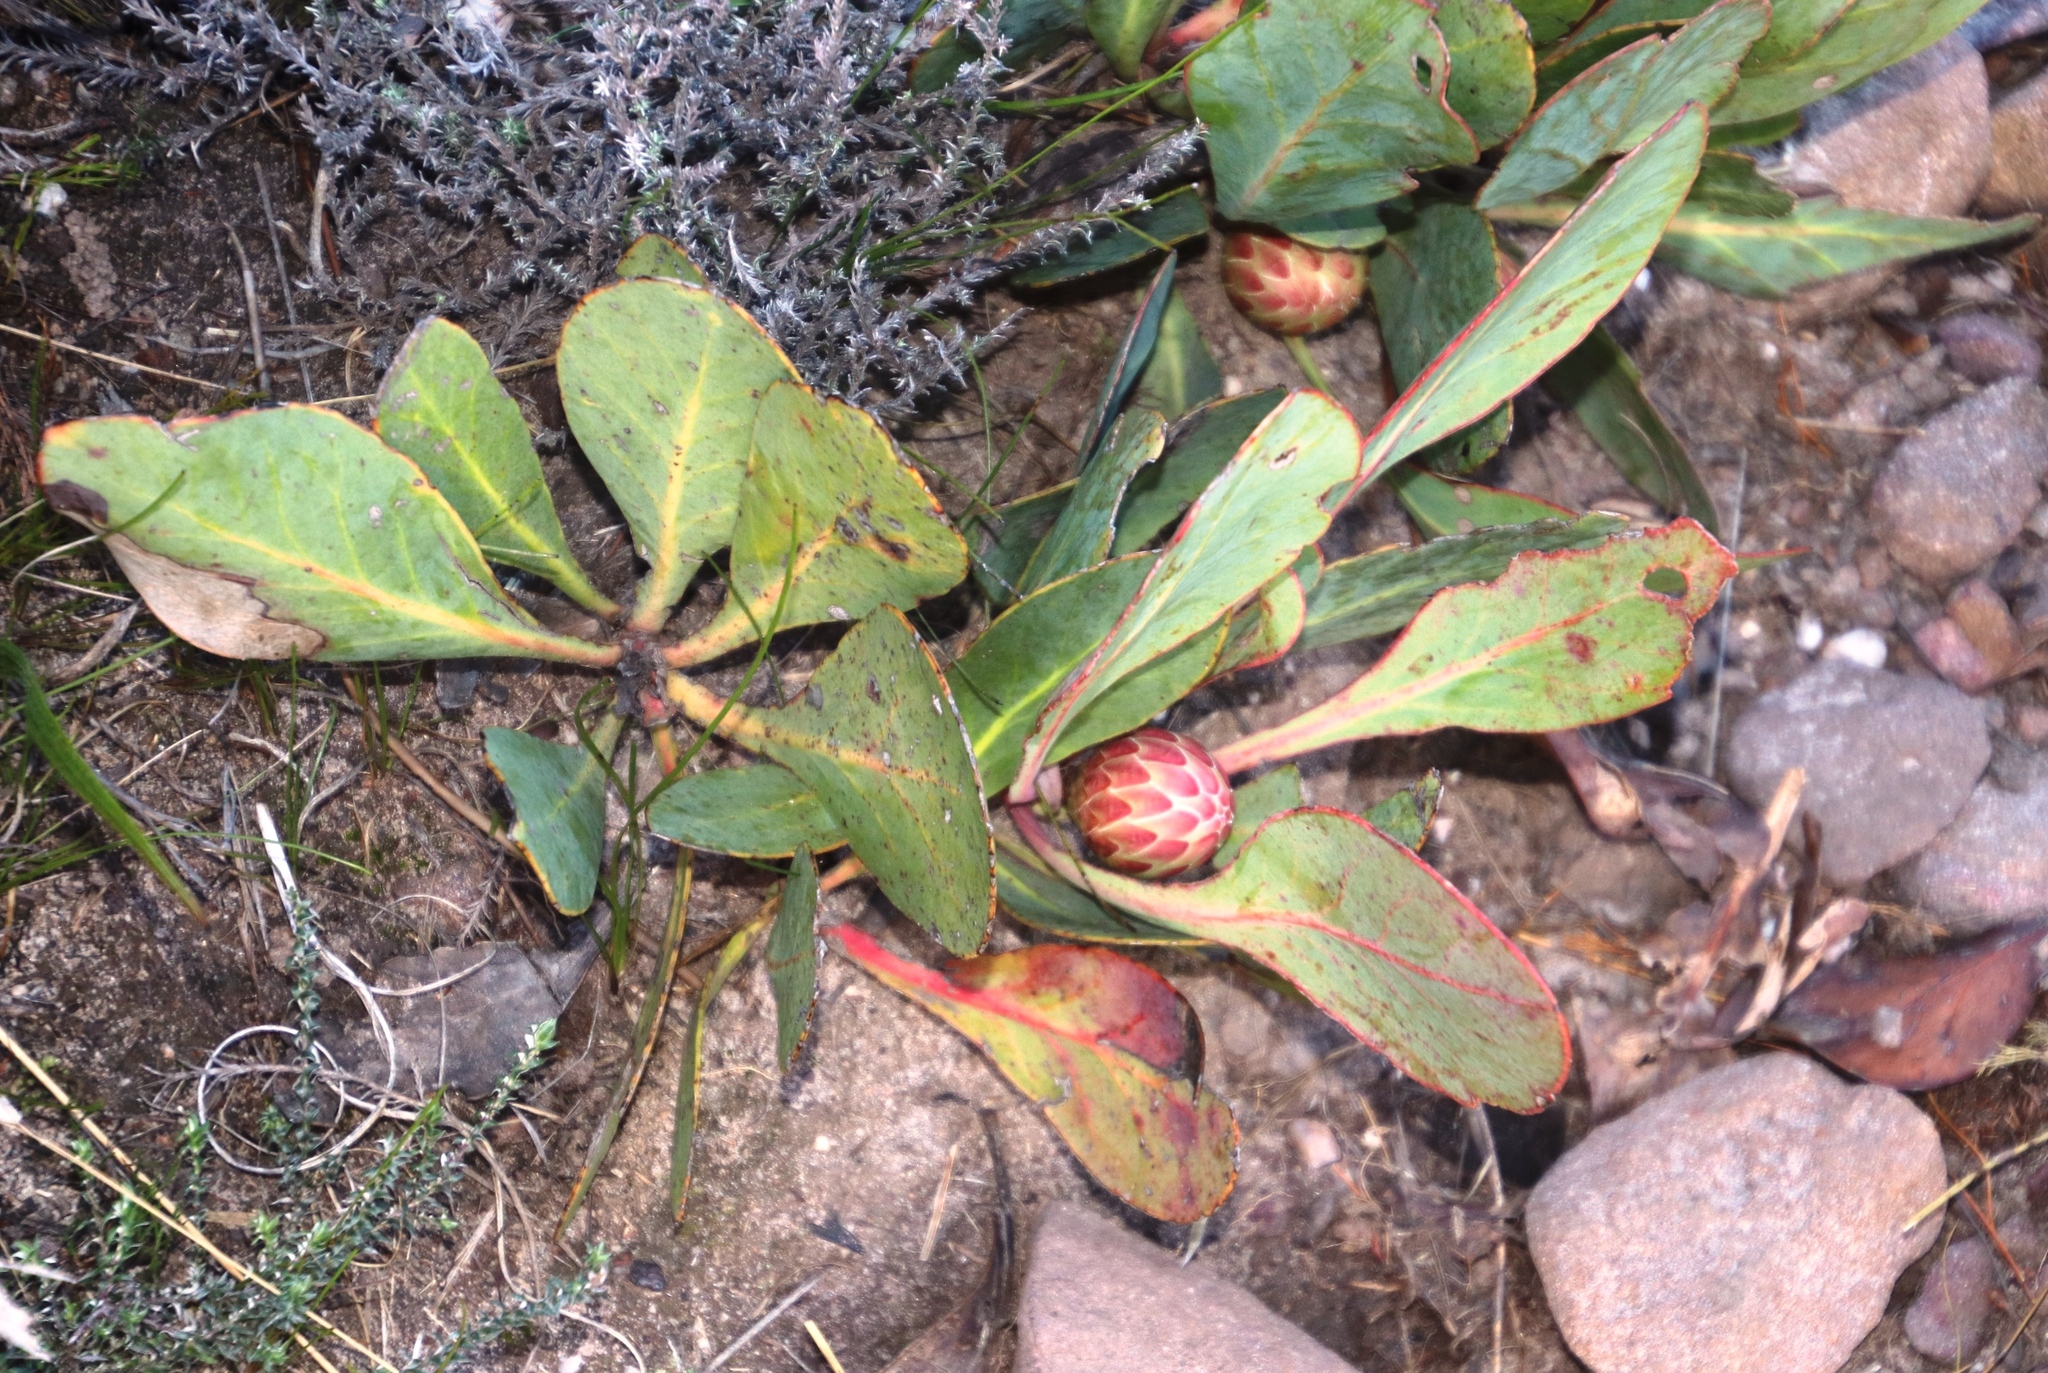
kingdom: Plantae
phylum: Tracheophyta
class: Magnoliopsida
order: Proteales
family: Proteaceae
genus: Protea
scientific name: Protea acaulos
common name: Common ground sugarbush
